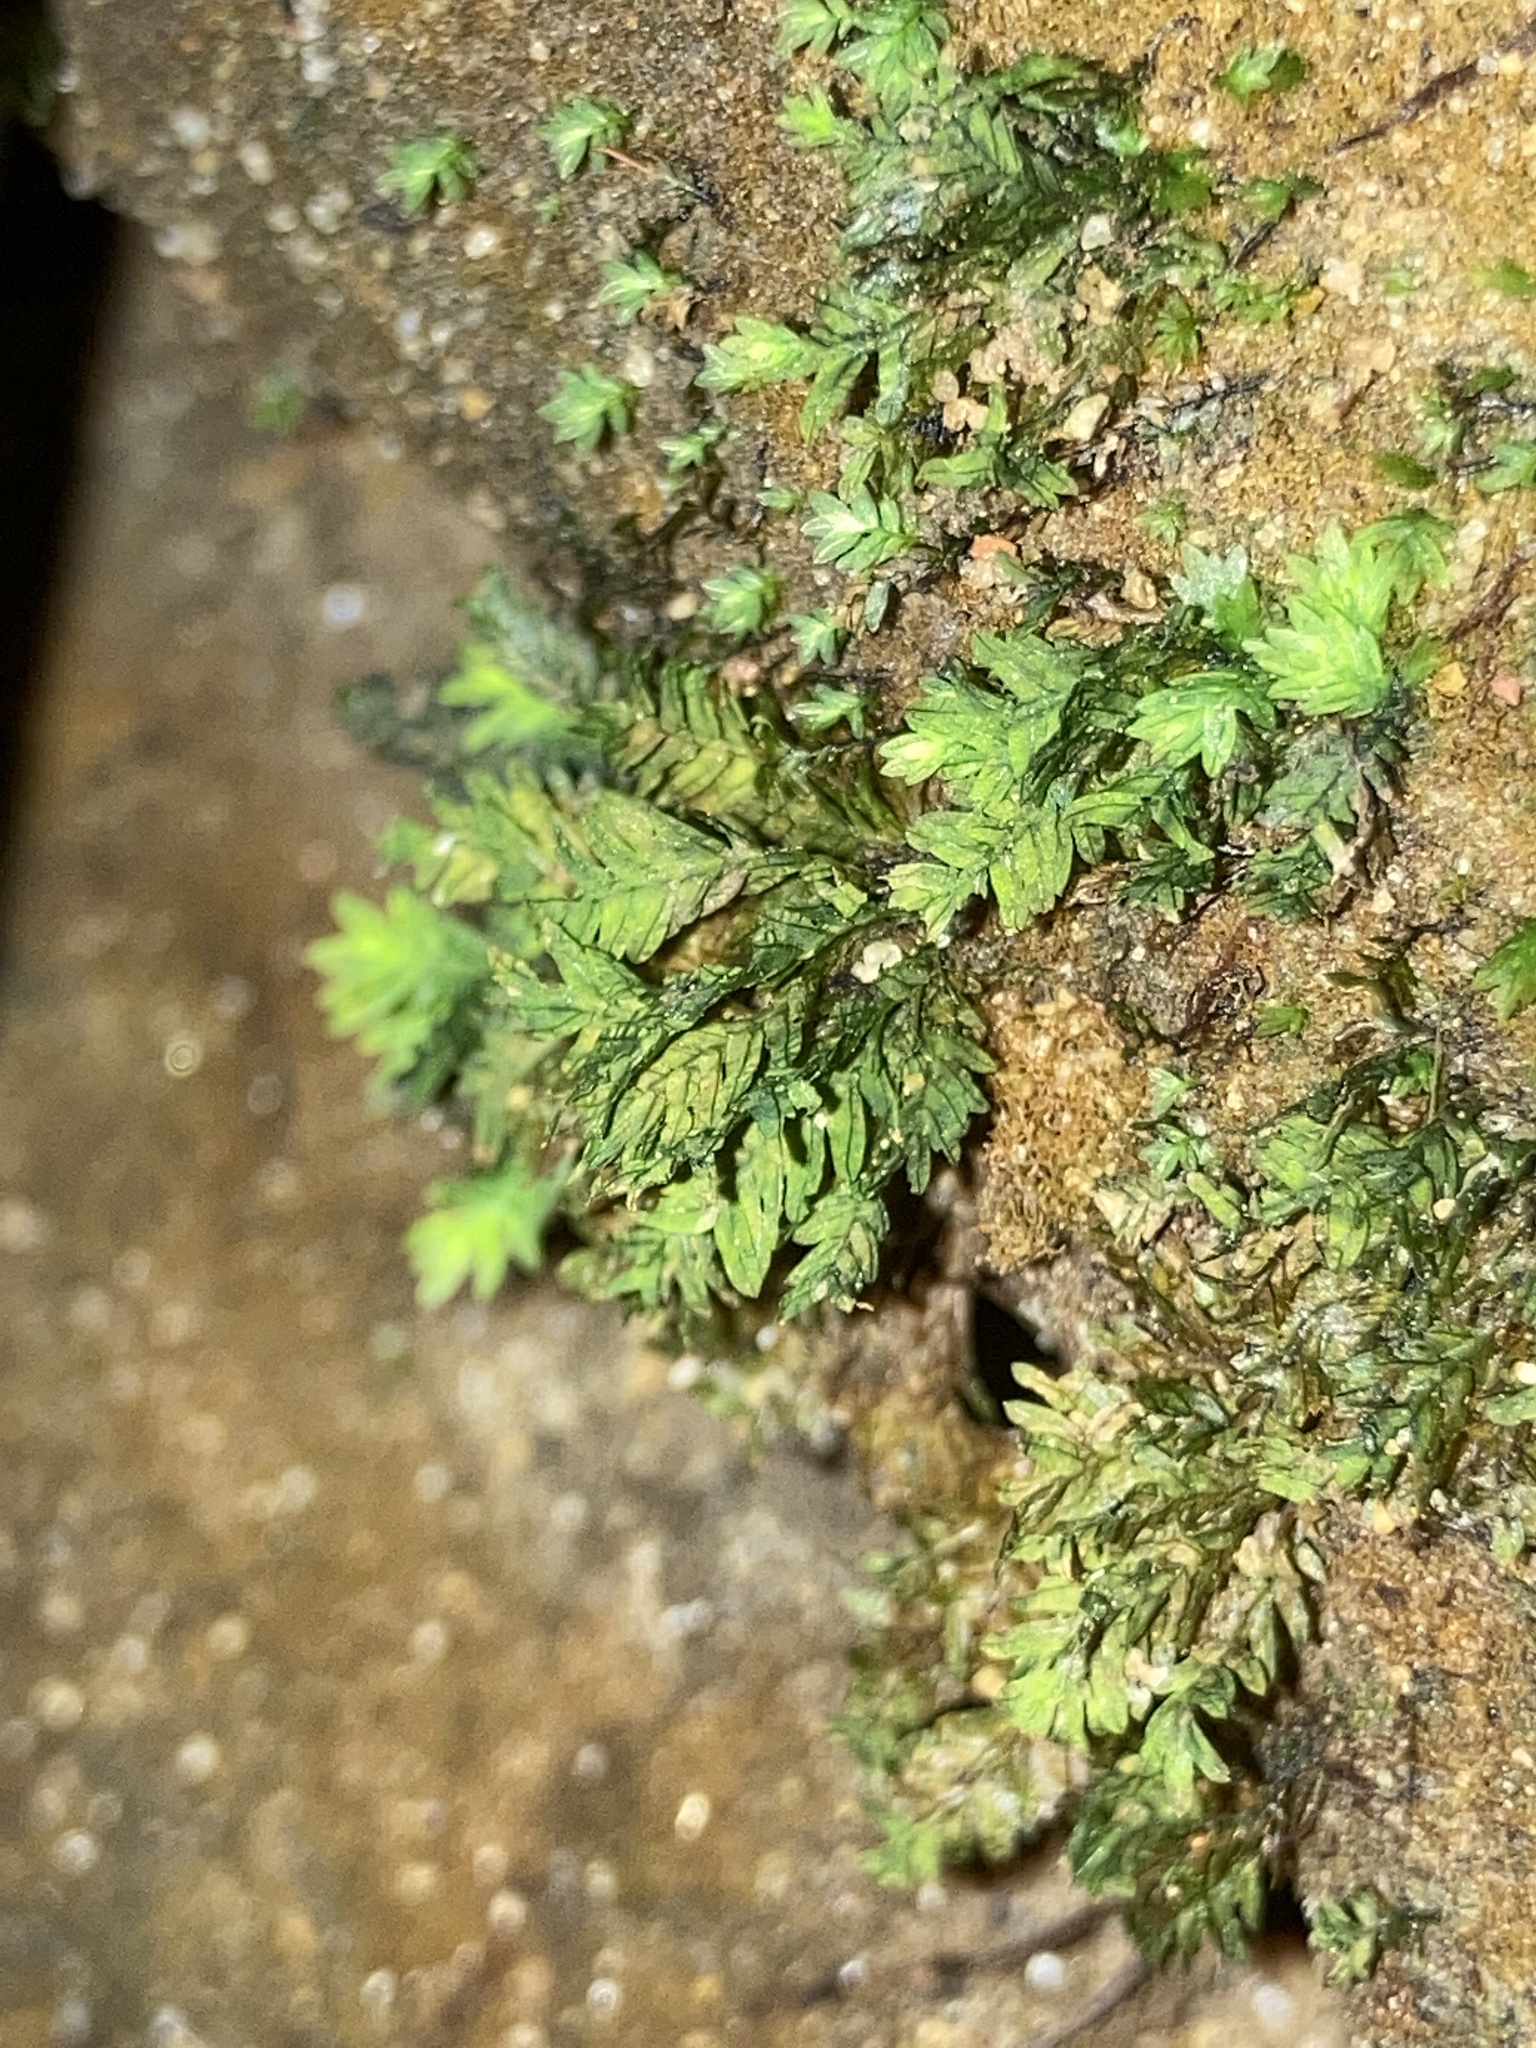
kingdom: Plantae
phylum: Bryophyta
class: Bryopsida
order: Dicranales
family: Fissidentaceae
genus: Fissidens
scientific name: Fissidens dubius
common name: Rock pocket moss
